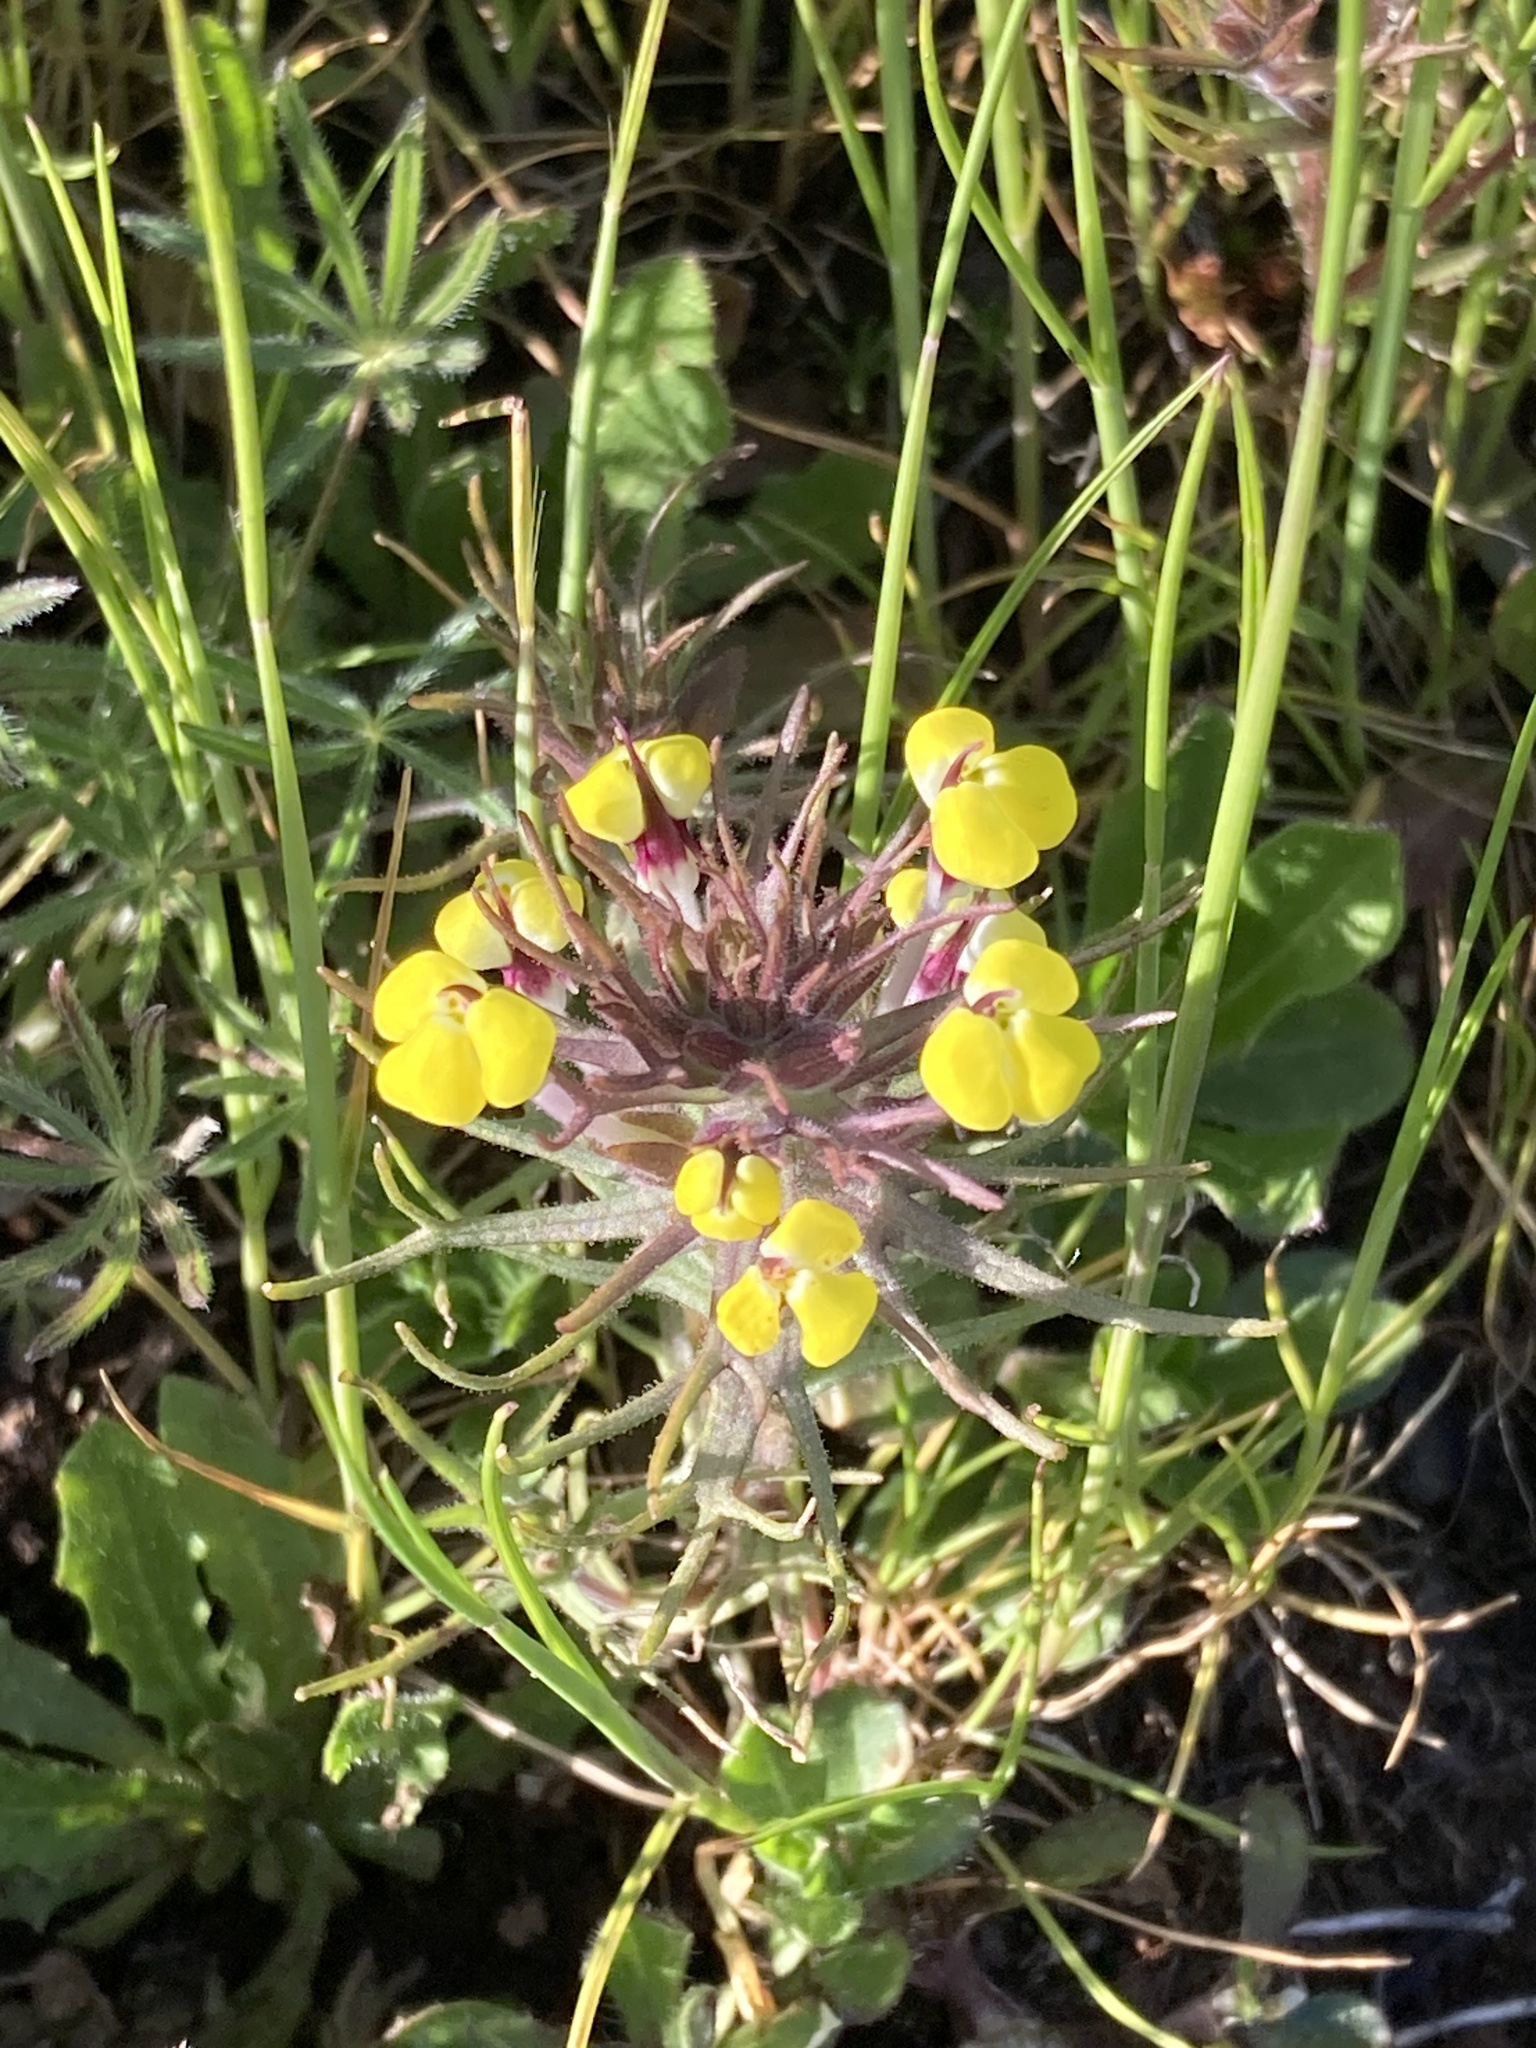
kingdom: Plantae
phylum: Tracheophyta
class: Magnoliopsida
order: Lamiales
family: Orobanchaceae
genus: Triphysaria
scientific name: Triphysaria eriantha
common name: Johnny-tuck
